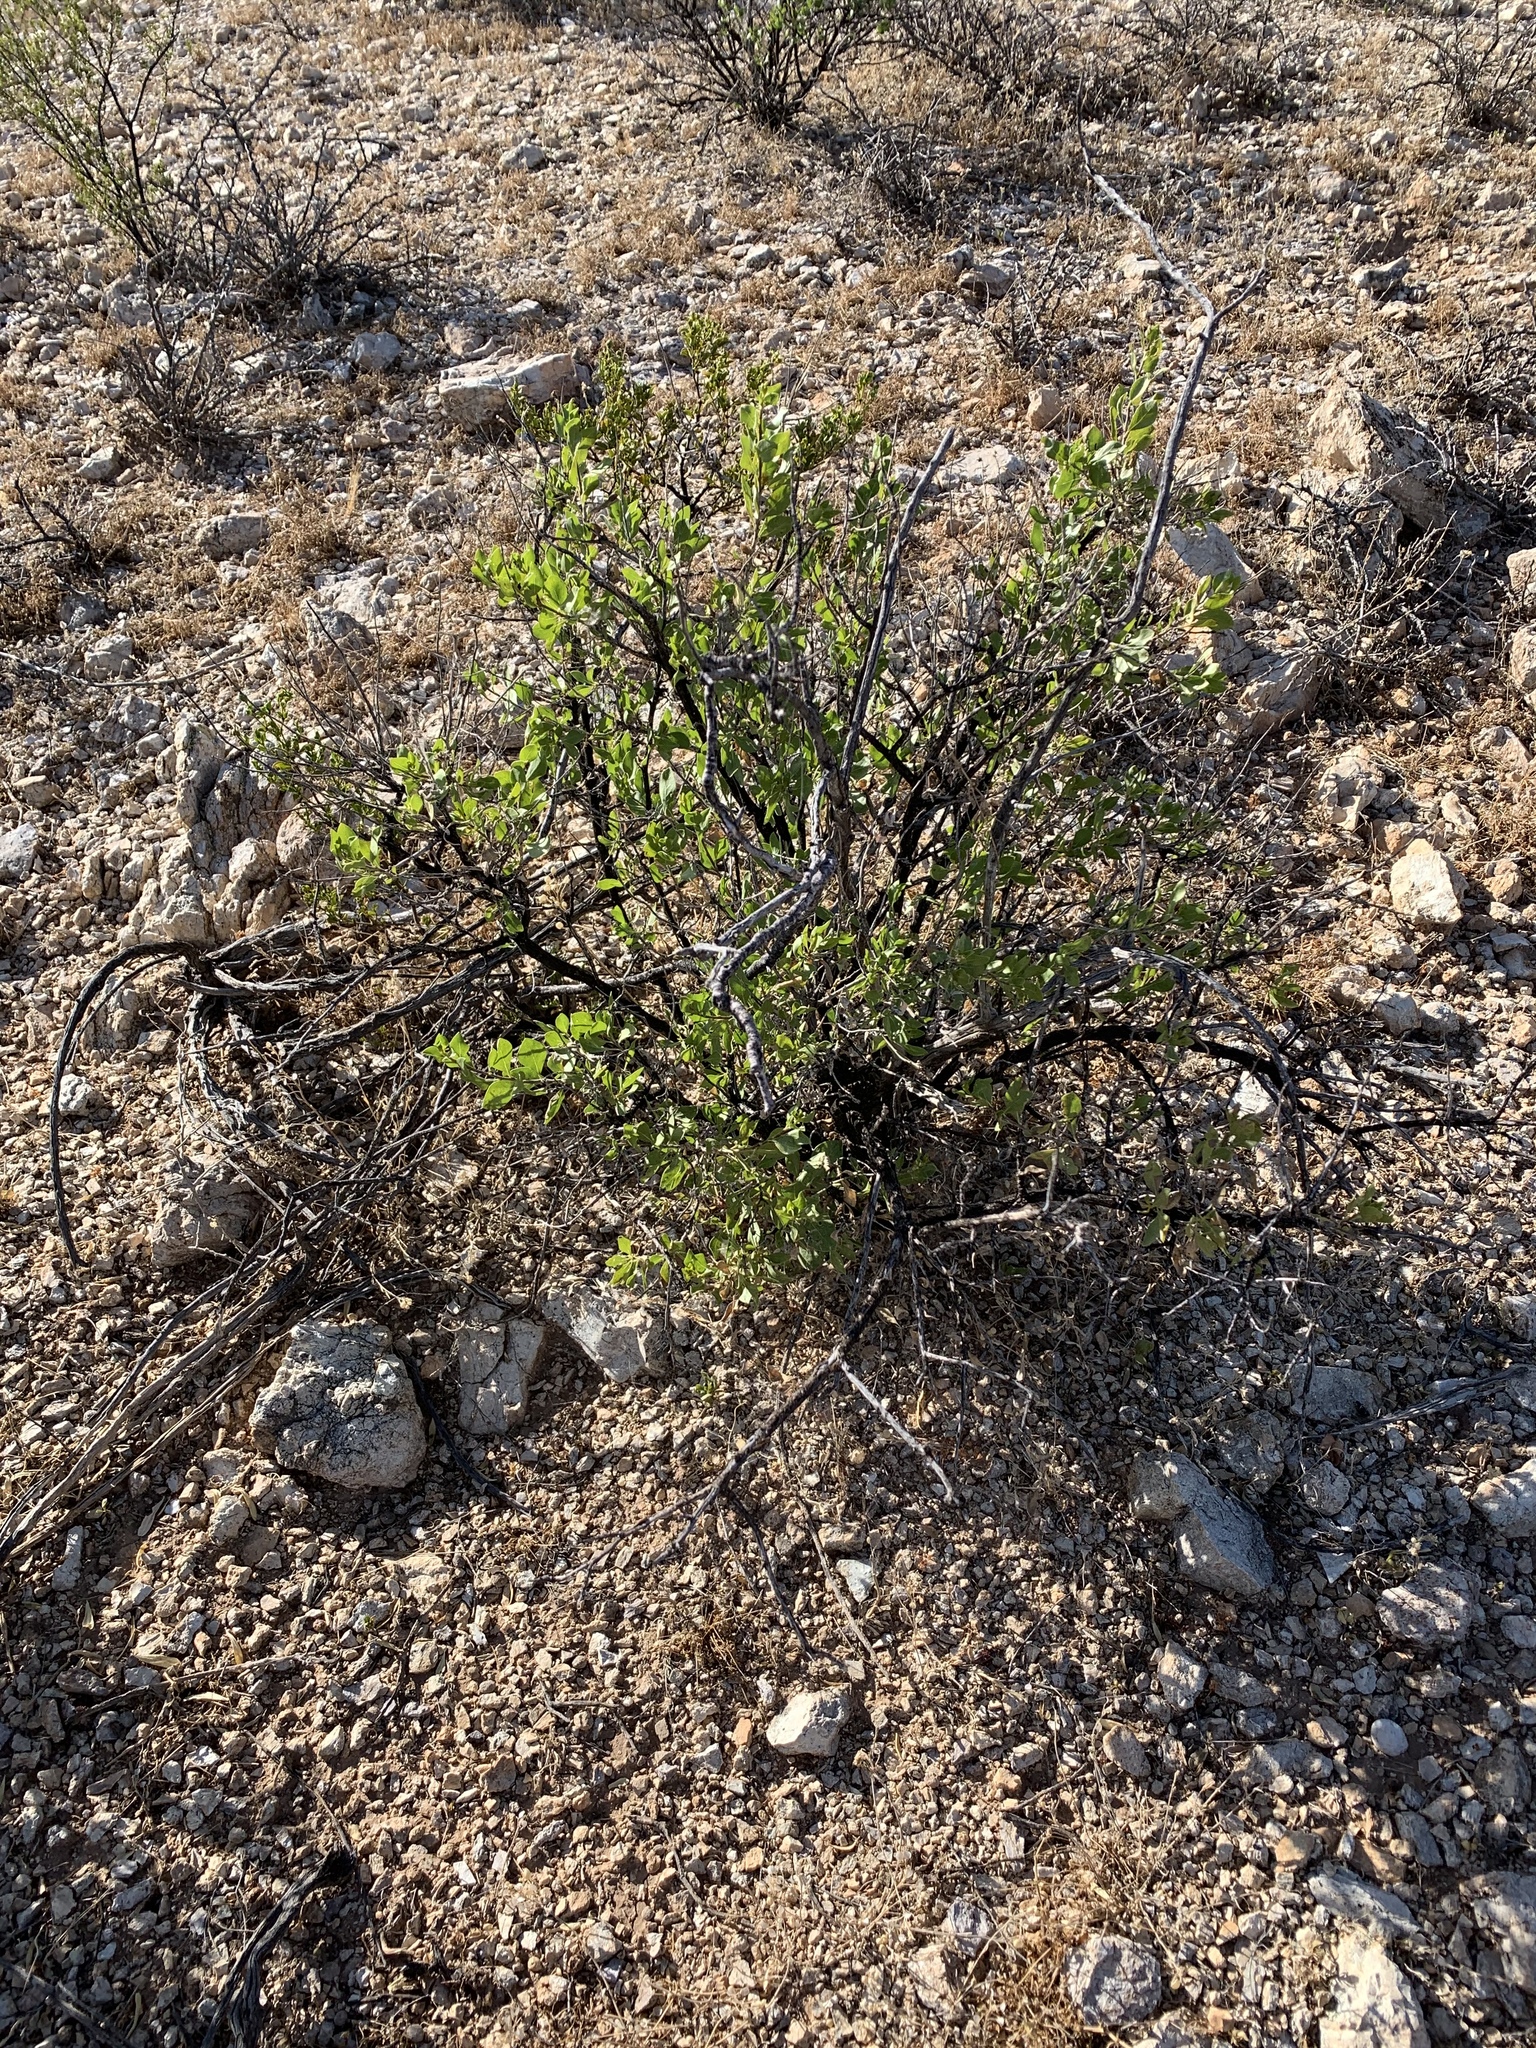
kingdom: Plantae
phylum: Tracheophyta
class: Magnoliopsida
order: Asterales
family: Asteraceae
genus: Flourensia
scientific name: Flourensia cernua
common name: Varnishbush
